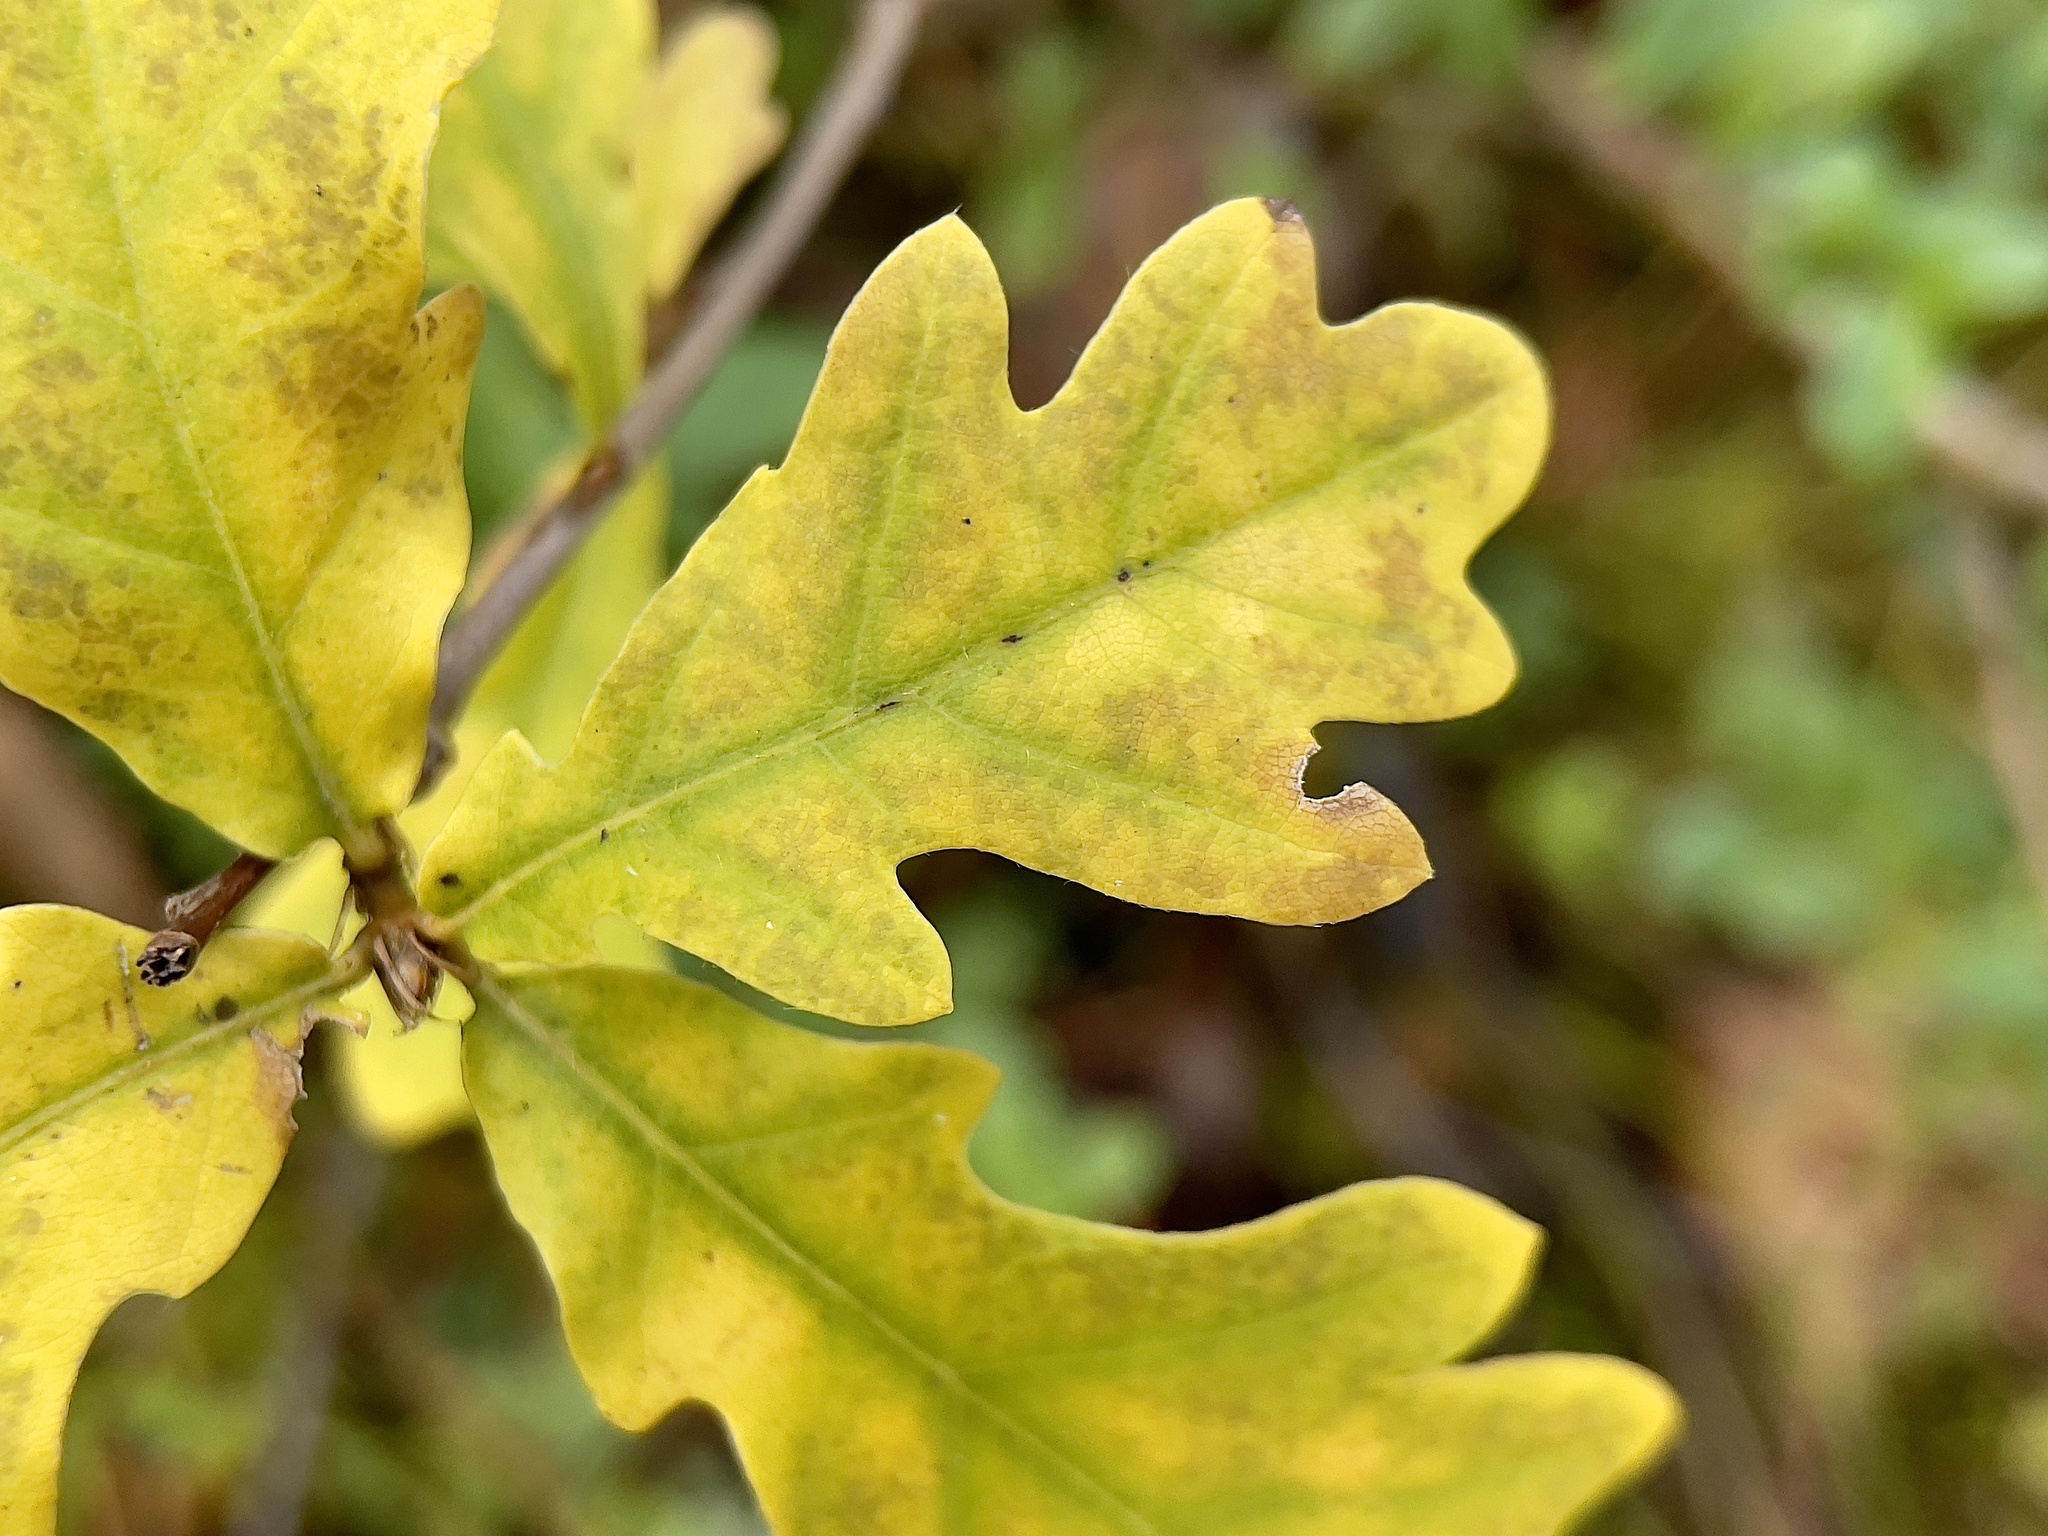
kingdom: Plantae
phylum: Tracheophyta
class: Magnoliopsida
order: Fagales
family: Fagaceae
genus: Quercus
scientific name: Quercus robur
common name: Pedunculate oak
